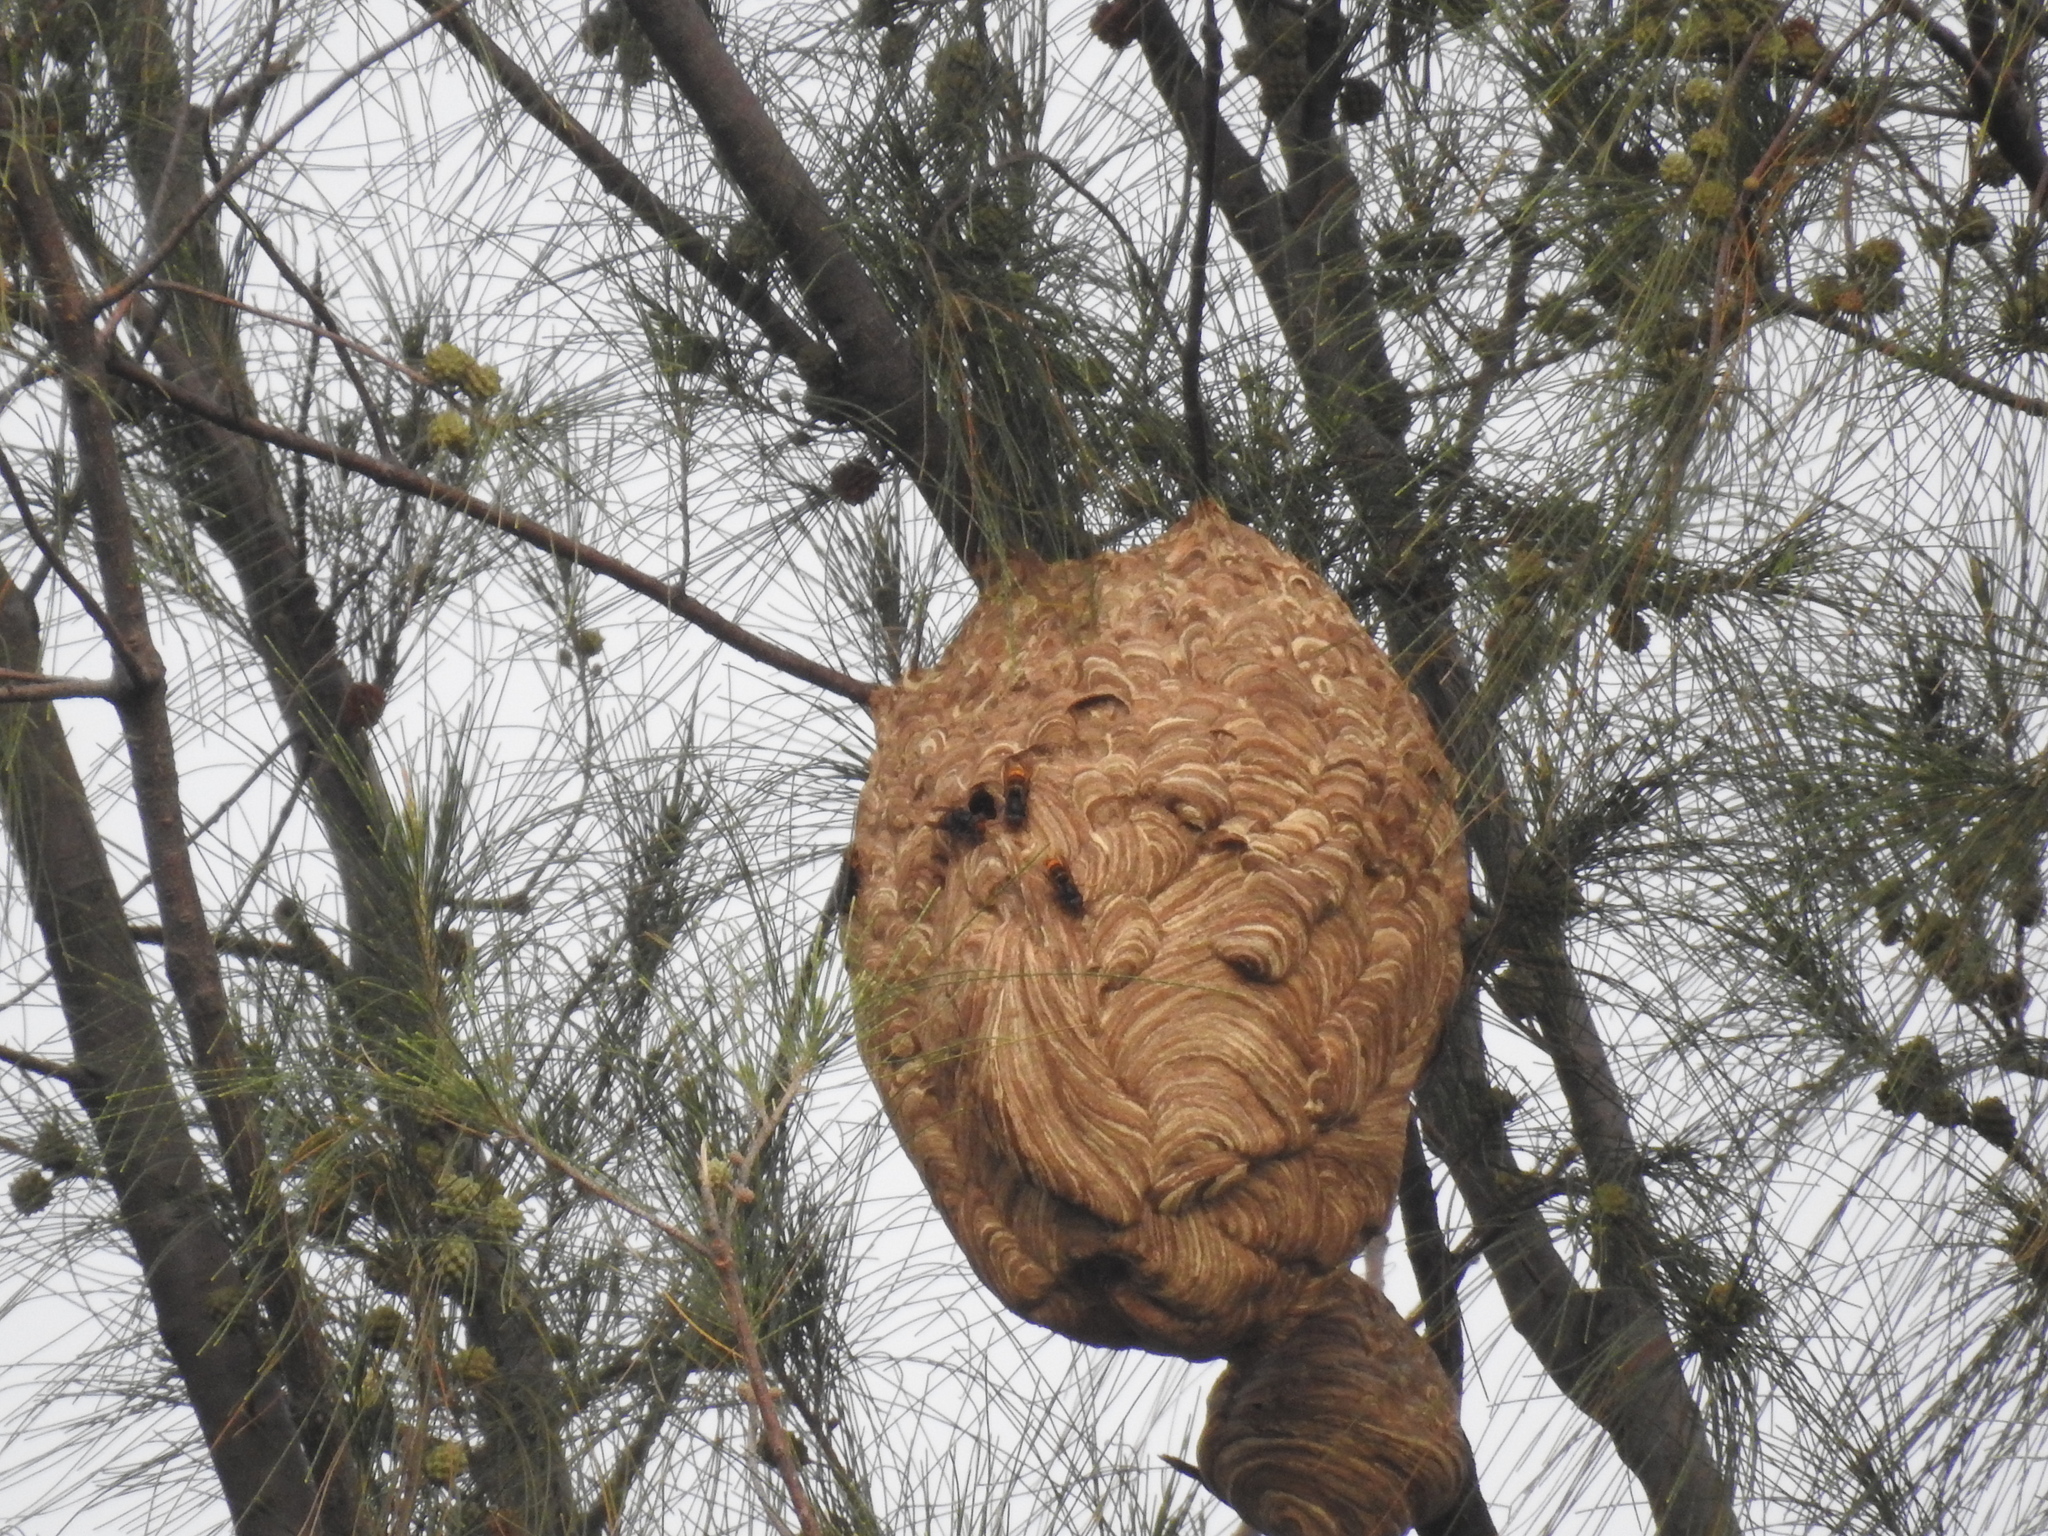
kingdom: Animalia
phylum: Arthropoda
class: Insecta
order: Hymenoptera
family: Vespidae
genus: Vespa
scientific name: Vespa velutina
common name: Asian hornet
